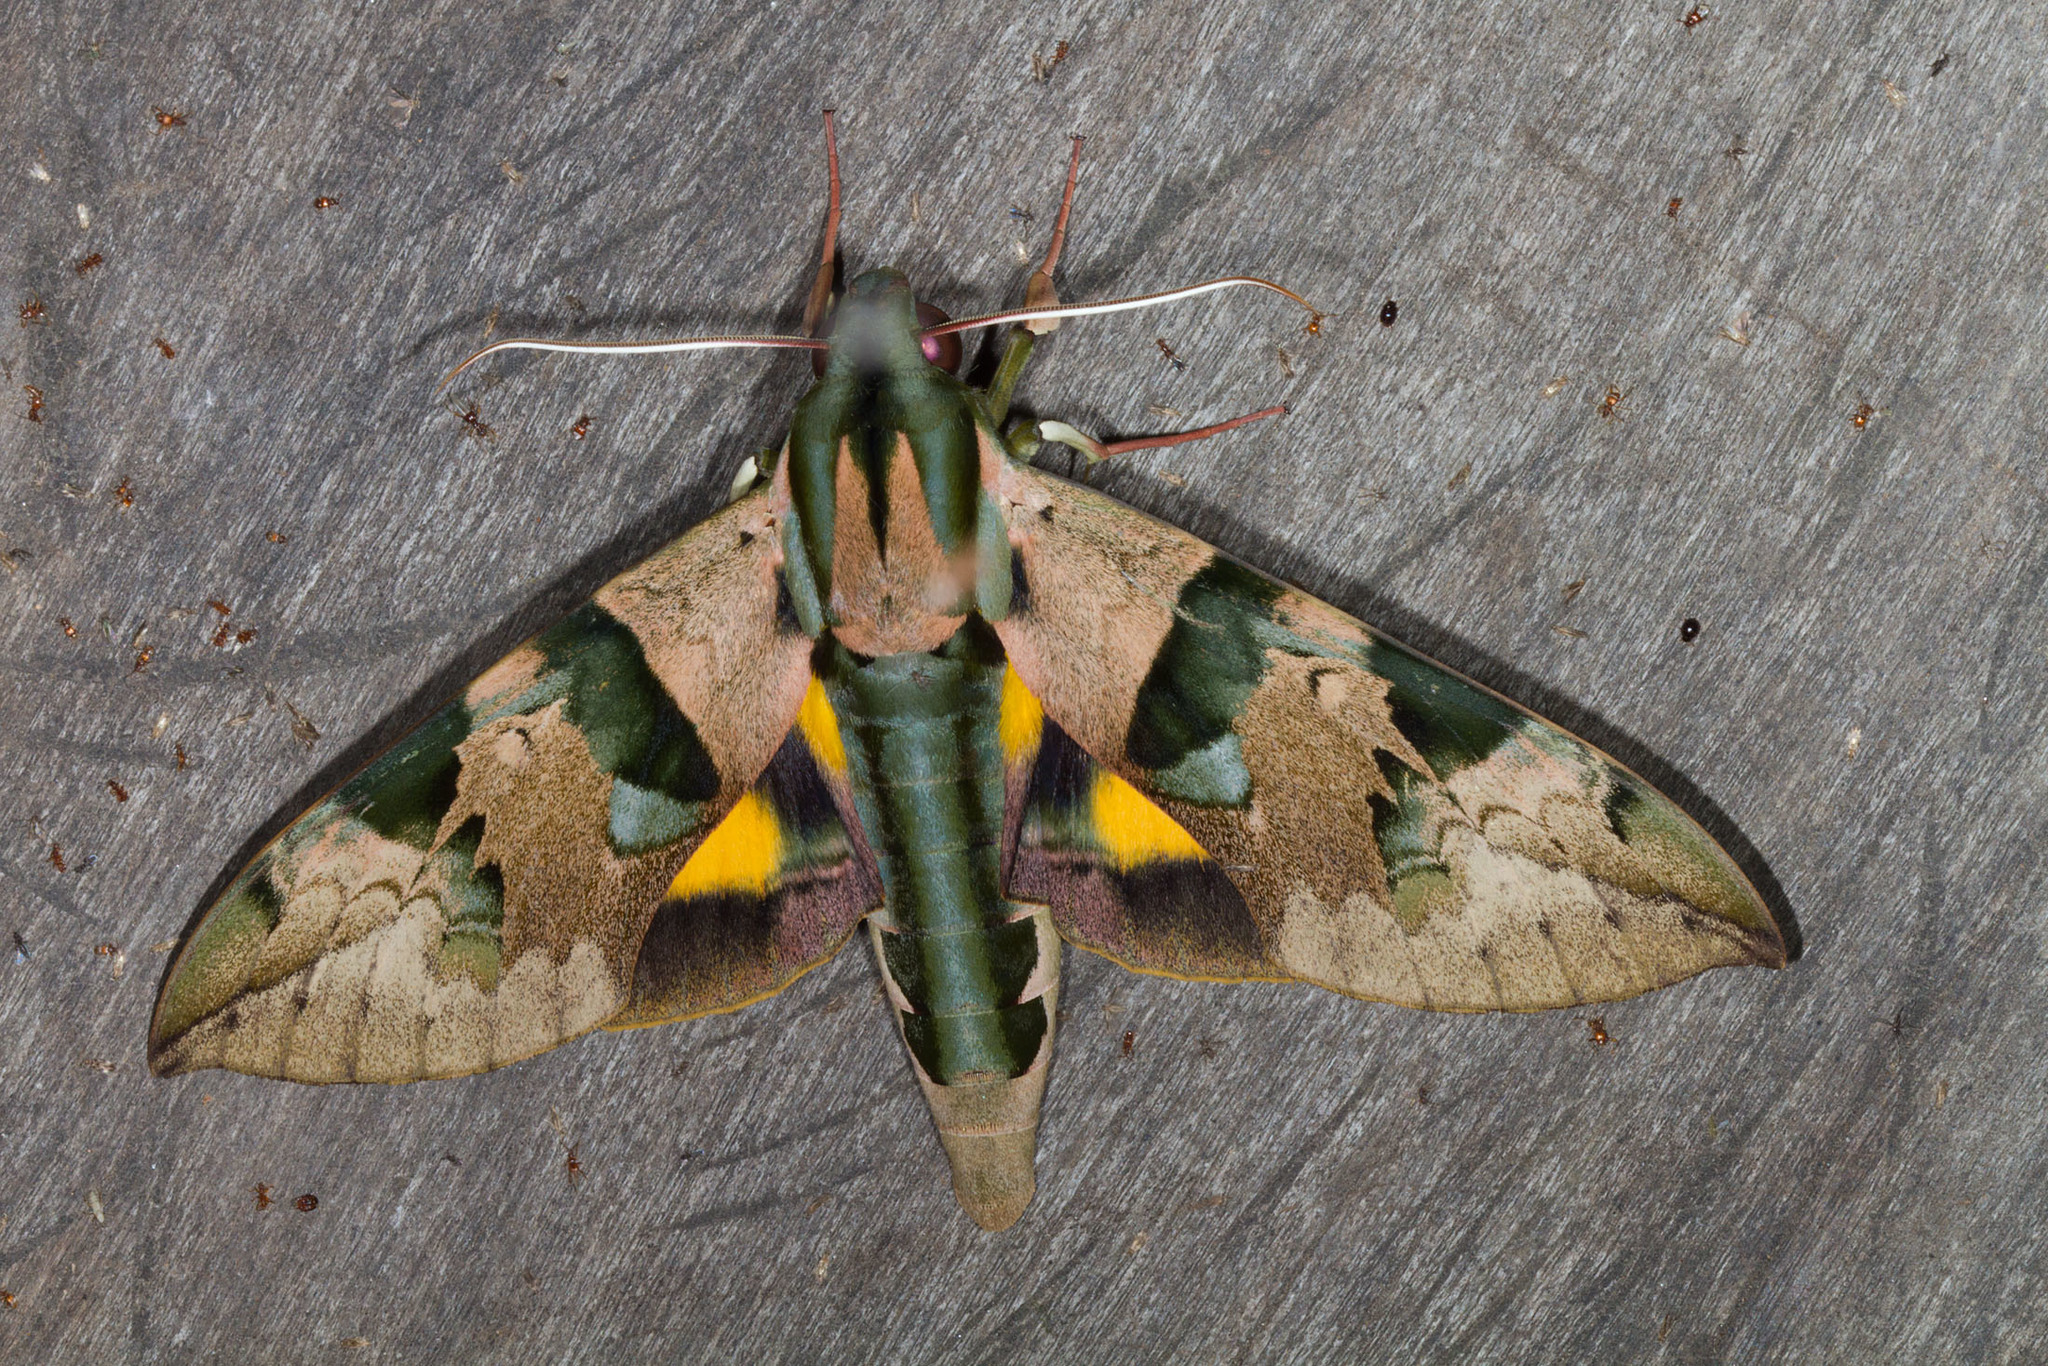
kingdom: Animalia
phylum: Arthropoda
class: Insecta
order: Lepidoptera
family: Sphingidae
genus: Eumorpha
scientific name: Eumorpha capronnieri
